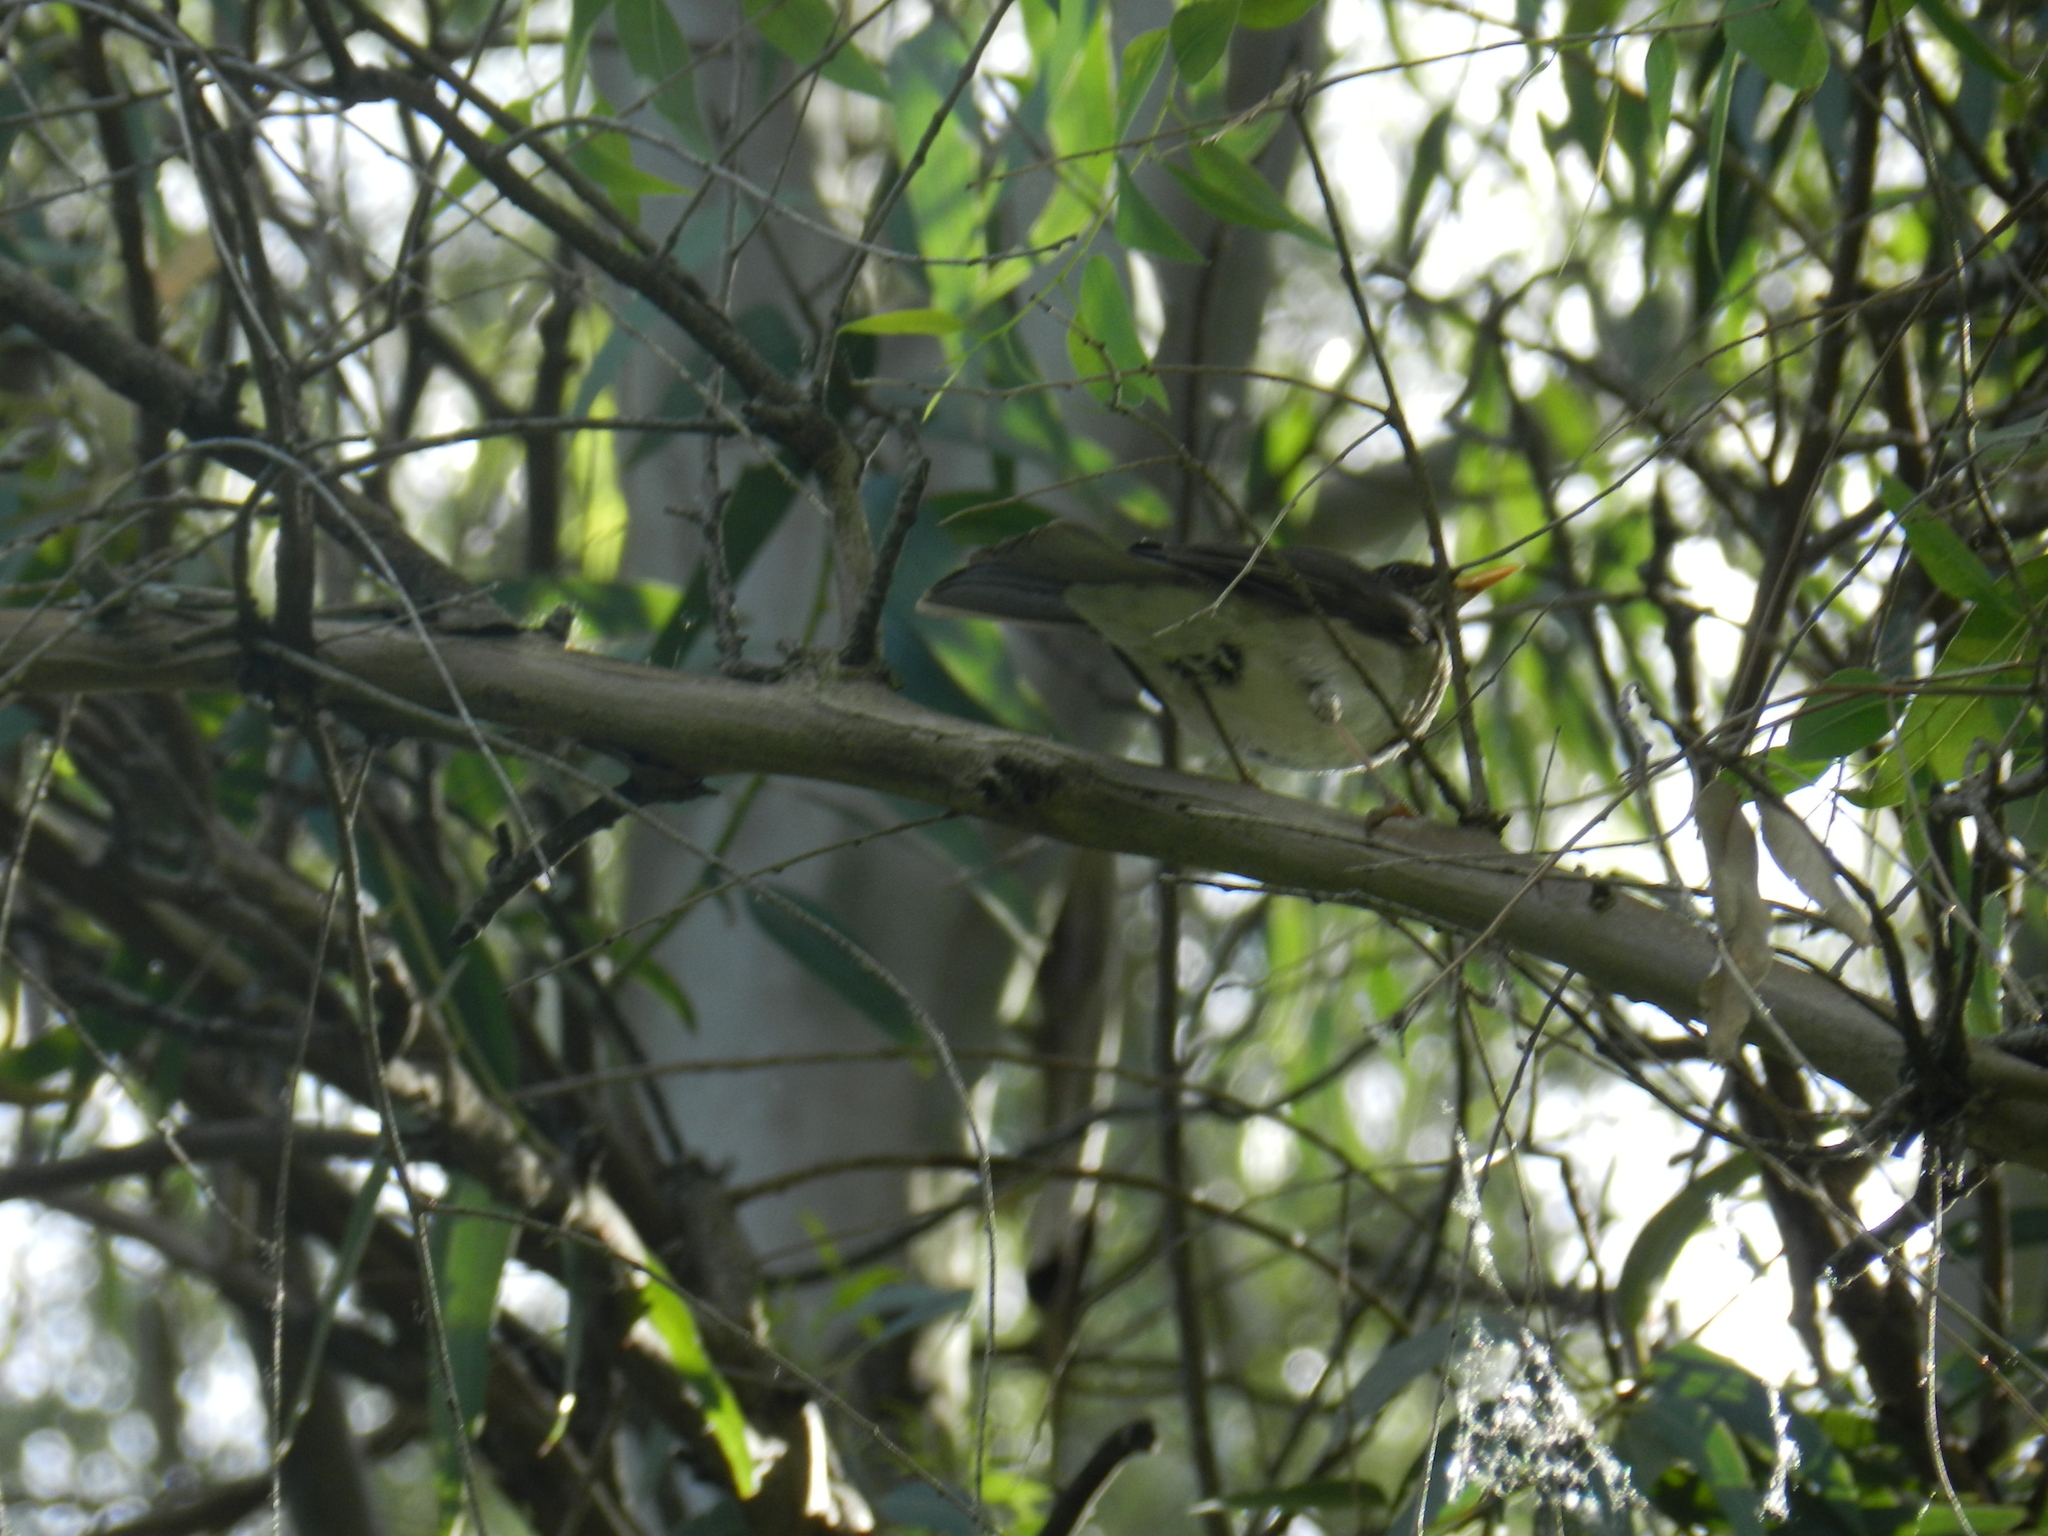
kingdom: Animalia
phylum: Chordata
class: Aves
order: Passeriformes
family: Turdidae
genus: Turdus
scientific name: Turdus amaurochalinus
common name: Creamy-bellied thrush
